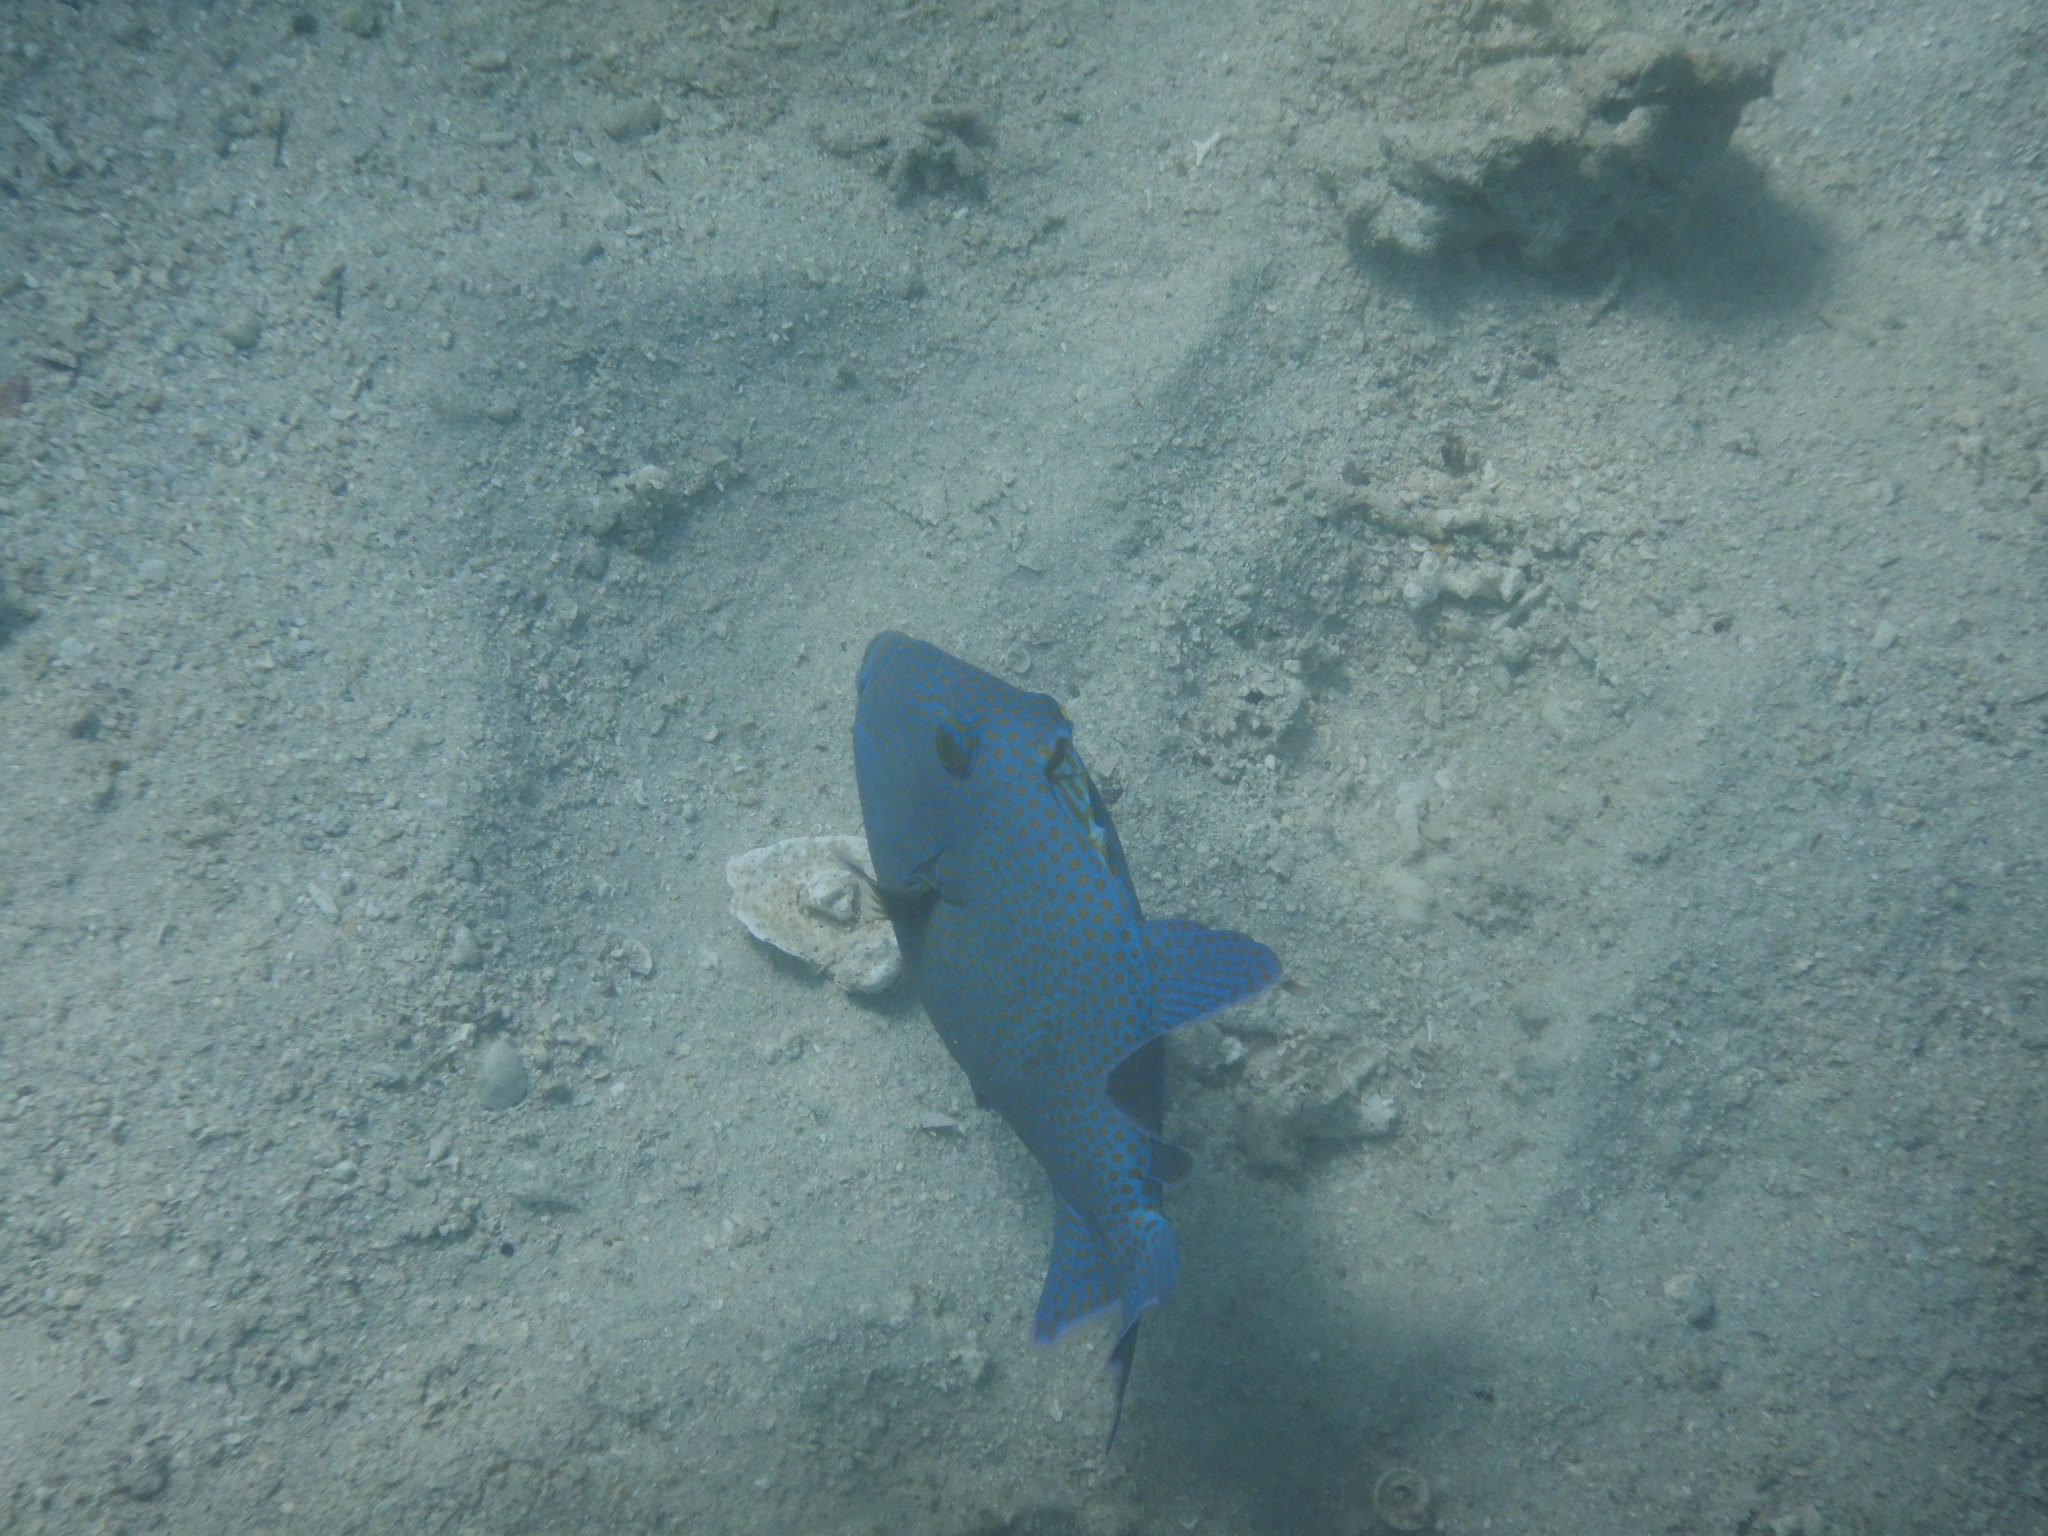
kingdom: Animalia
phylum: Chordata
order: Tetraodontiformes
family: Balistidae
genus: Pseudobalistes
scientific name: Pseudobalistes fuscus
